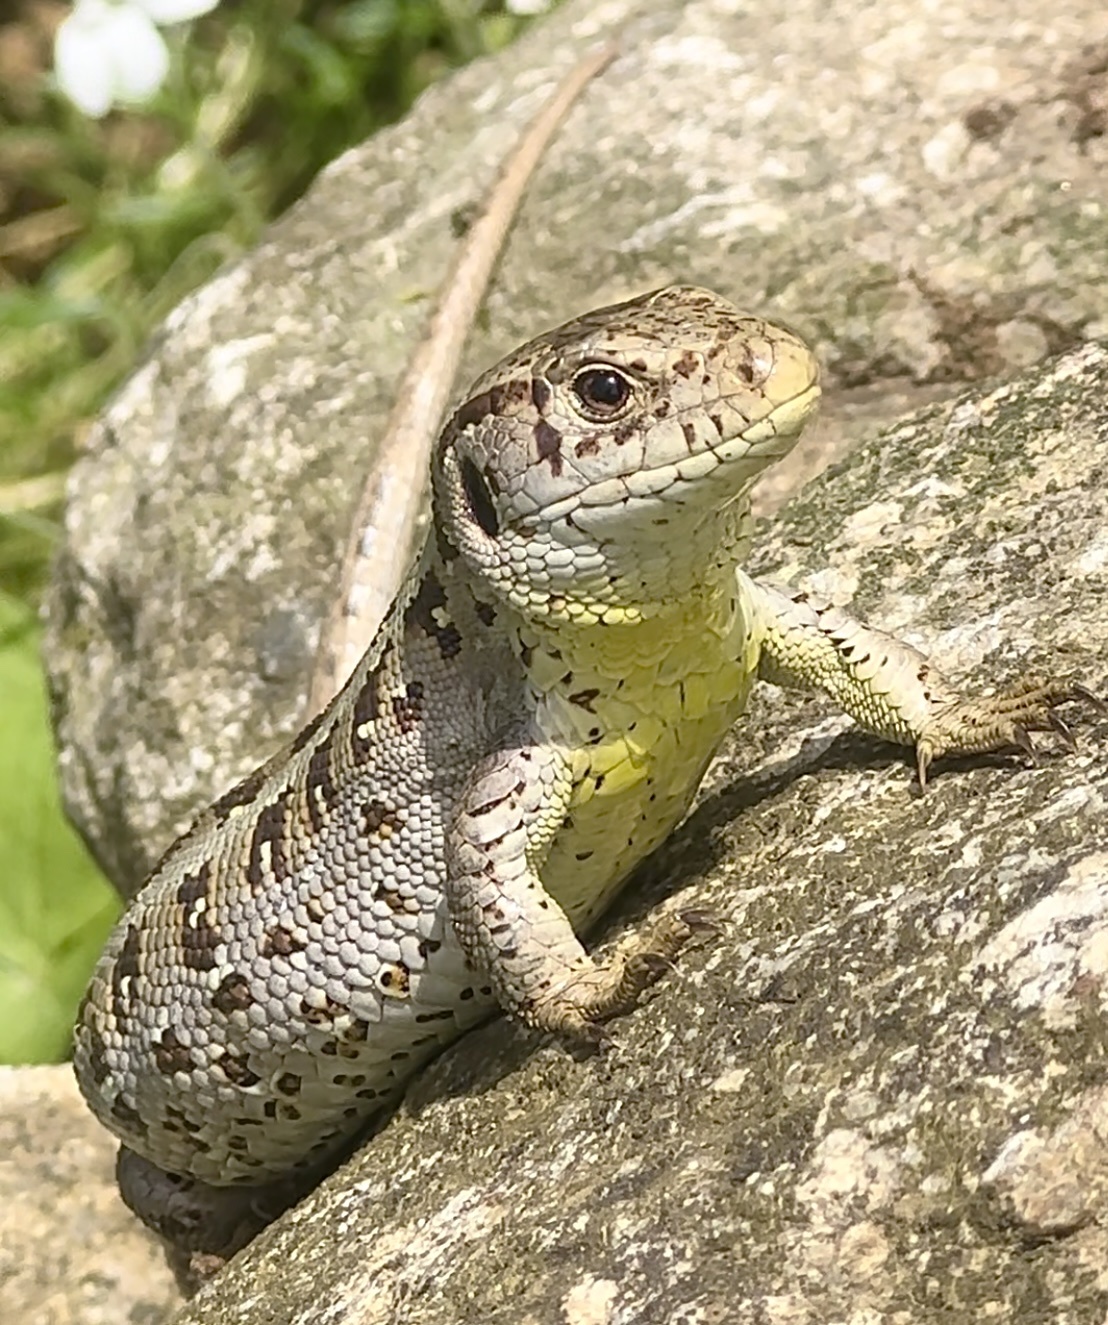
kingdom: Animalia
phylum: Chordata
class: Squamata
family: Lacertidae
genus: Lacerta
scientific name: Lacerta agilis
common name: Sand lizard
